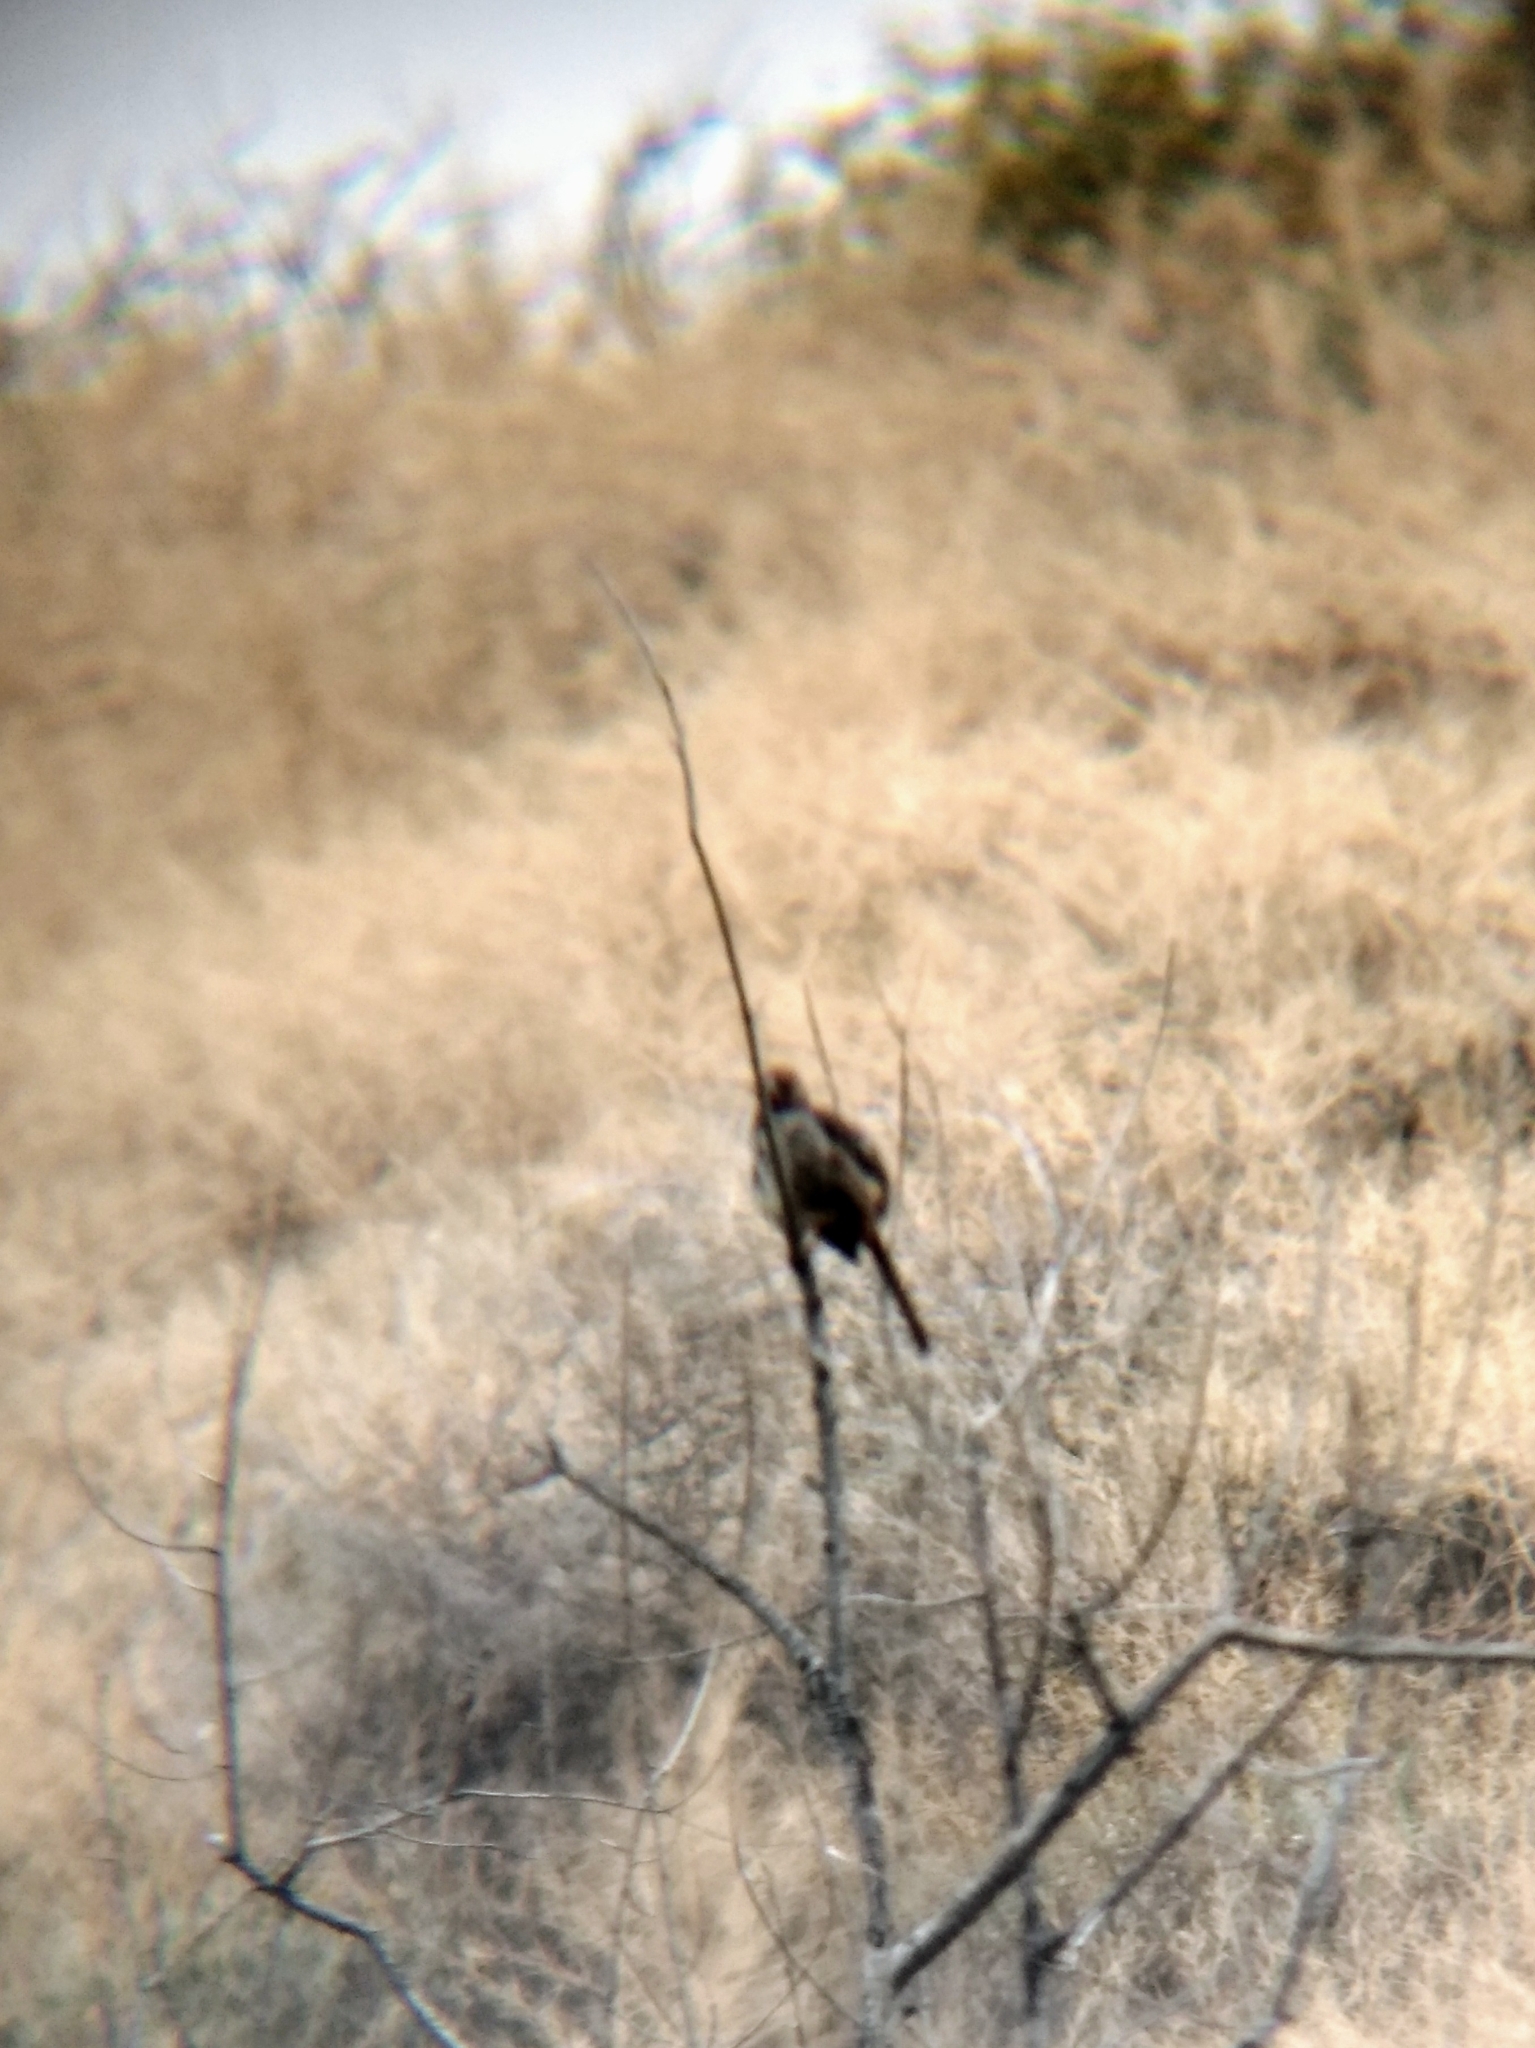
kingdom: Animalia
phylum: Chordata
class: Aves
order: Passeriformes
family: Passerellidae
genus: Melozone
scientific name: Melozone crissalis
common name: California towhee
